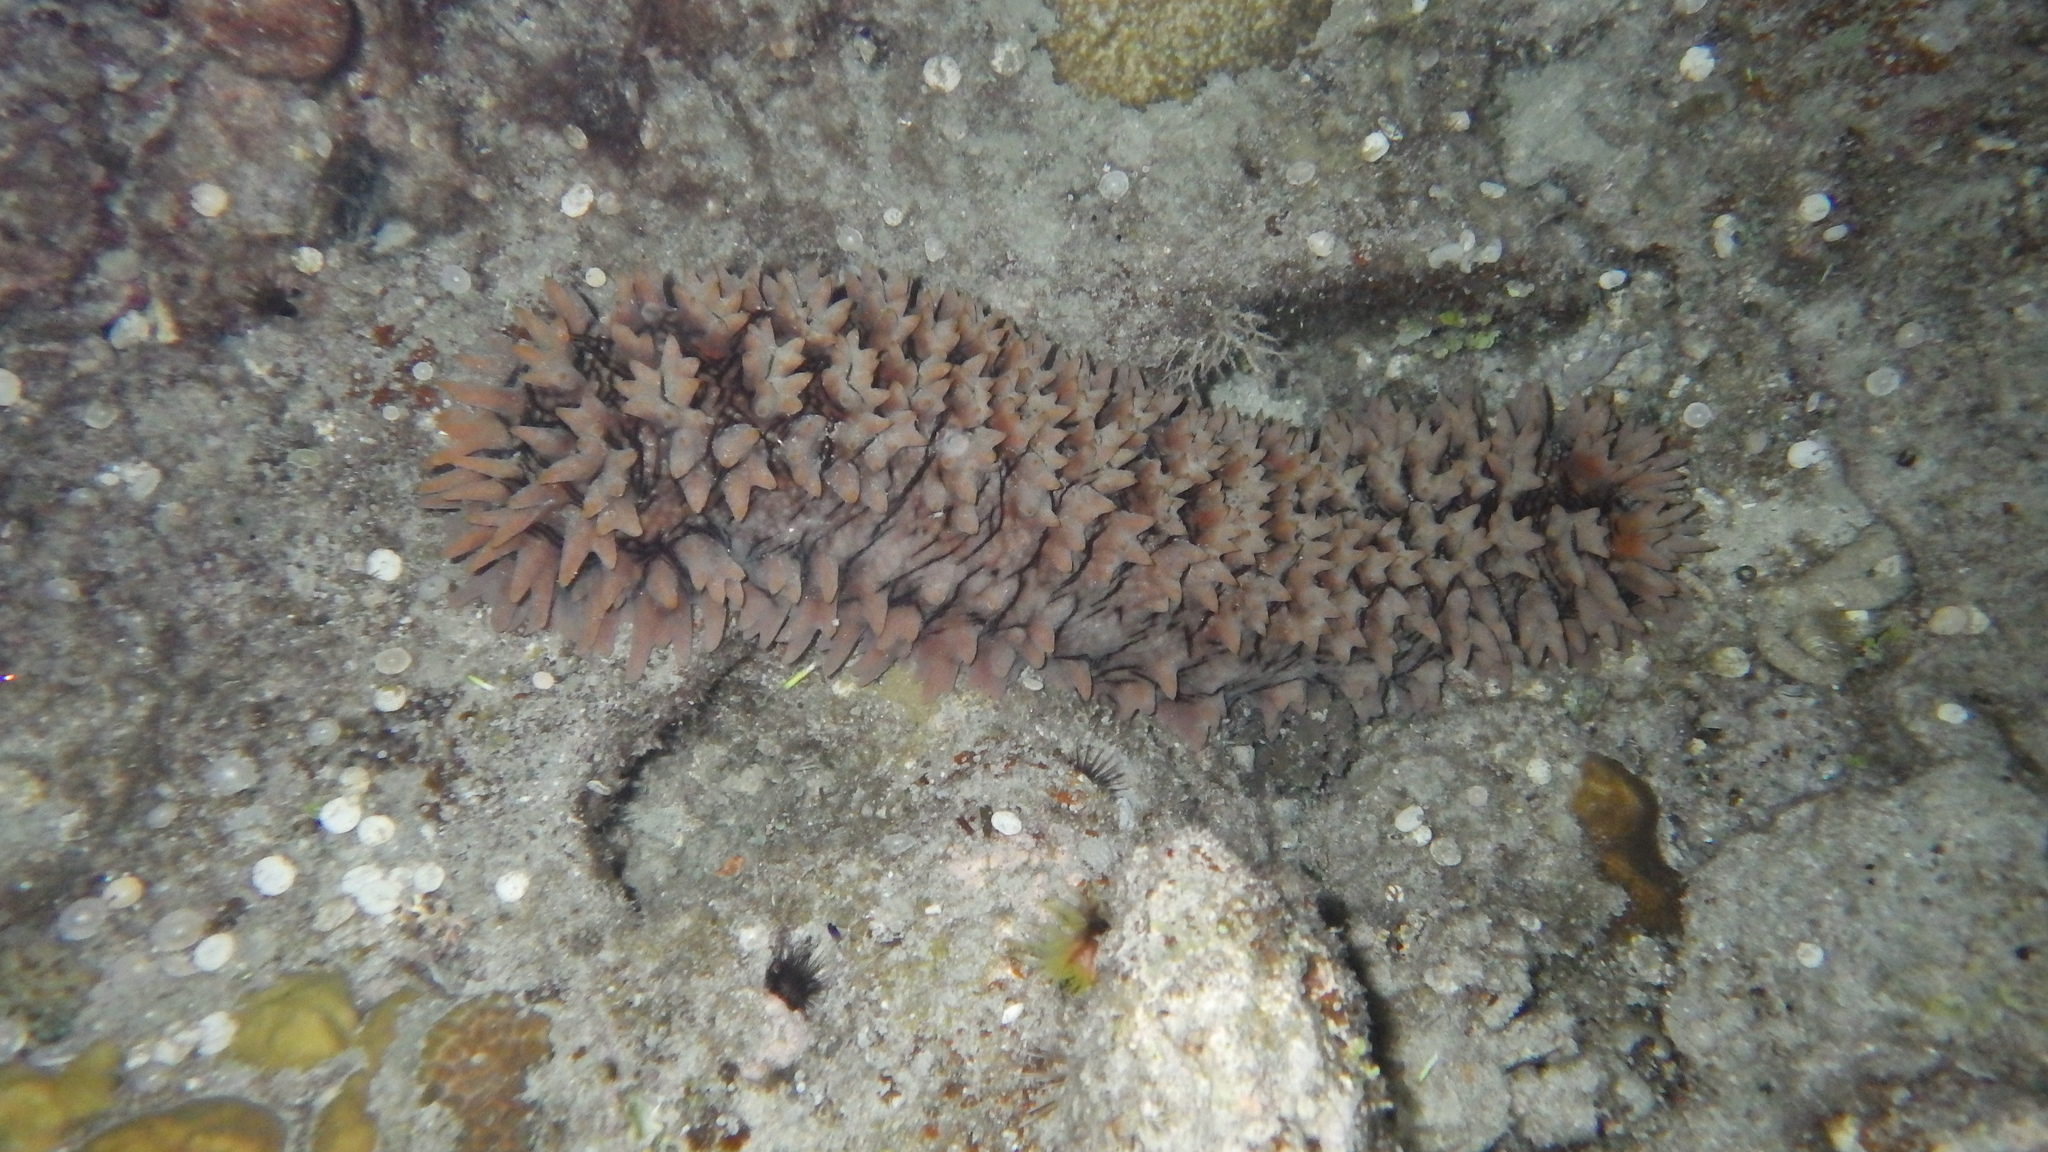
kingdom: Animalia
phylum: Echinodermata
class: Holothuroidea
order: Synallactida
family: Stichopodidae
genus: Thelenota
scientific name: Thelenota ananas
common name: Prickly redfish
